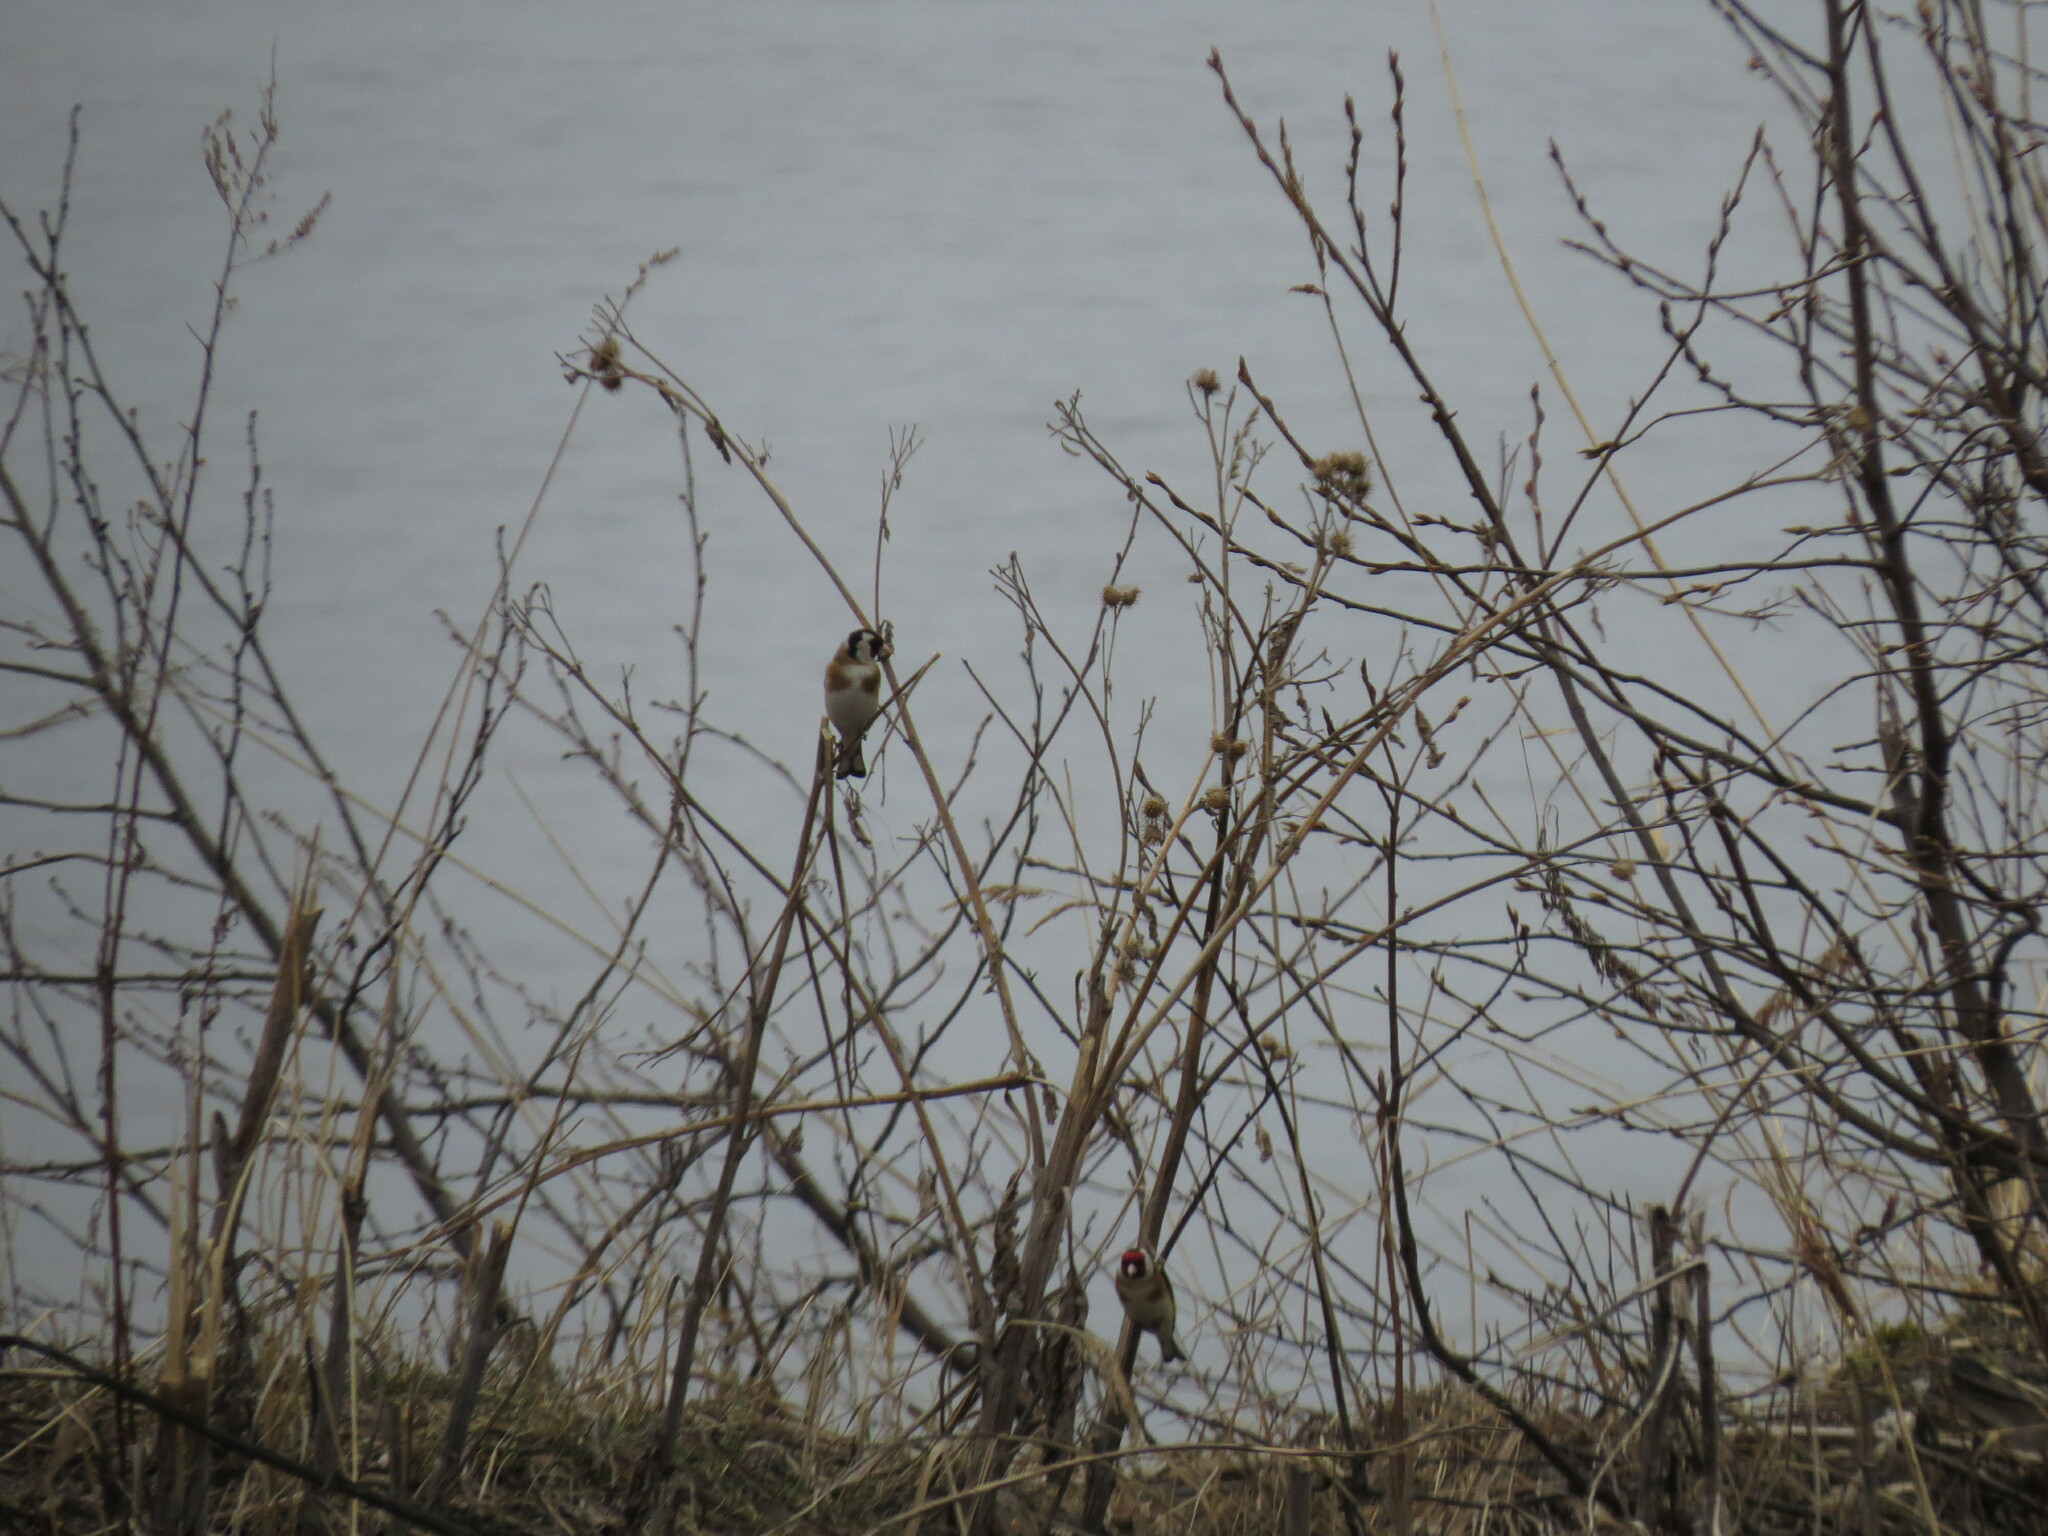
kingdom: Animalia
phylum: Chordata
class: Aves
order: Passeriformes
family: Fringillidae
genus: Carduelis
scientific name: Carduelis carduelis
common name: European goldfinch
